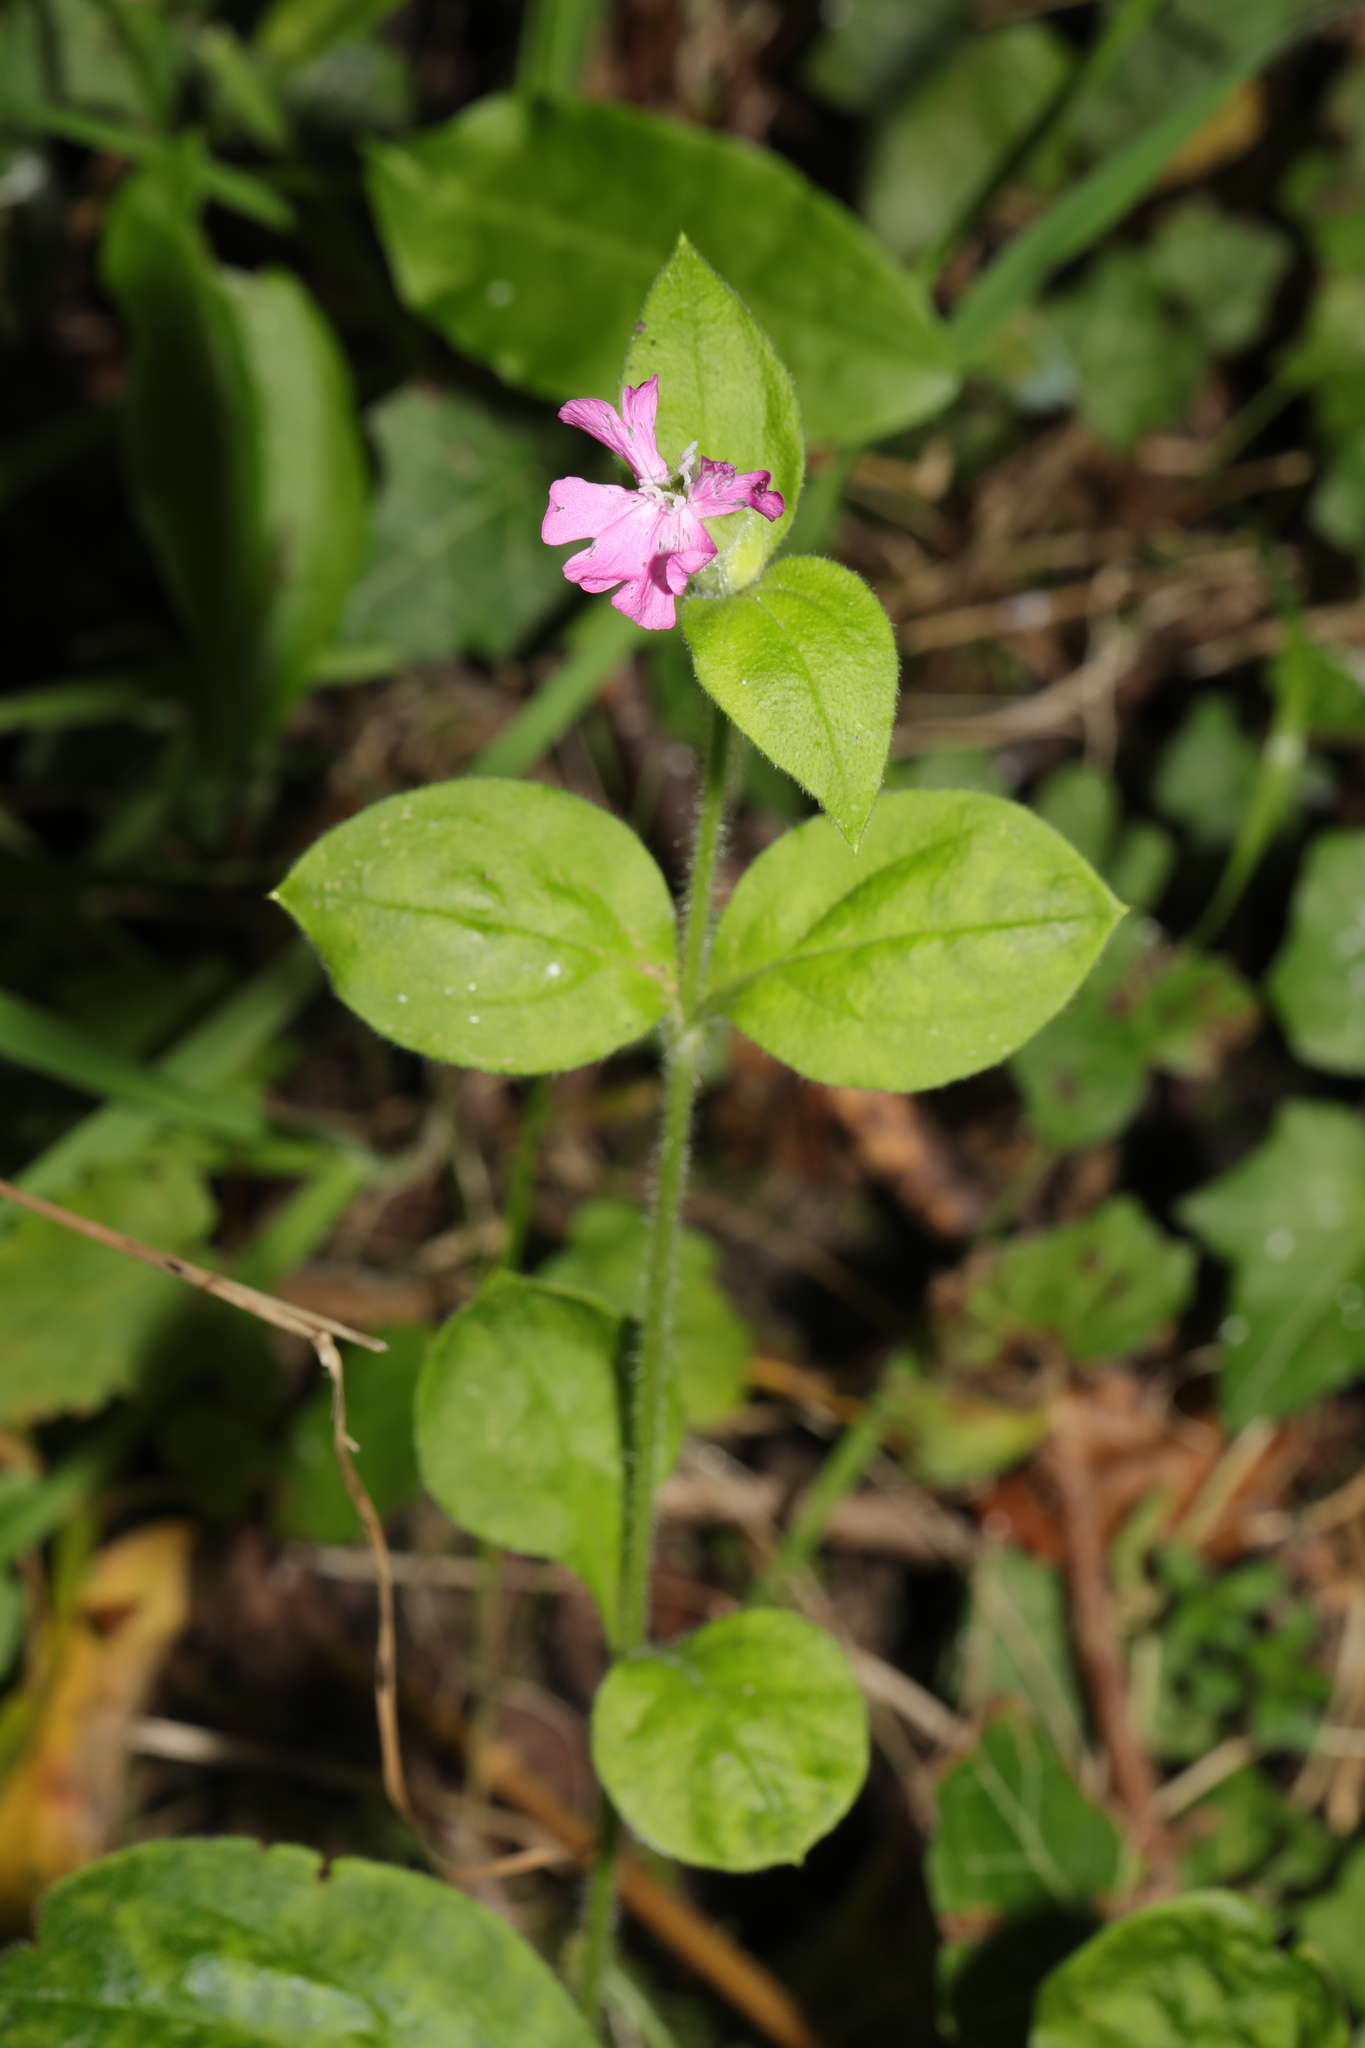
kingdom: Plantae
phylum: Tracheophyta
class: Magnoliopsida
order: Caryophyllales
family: Caryophyllaceae
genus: Silene
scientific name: Silene dioica
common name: Red campion
